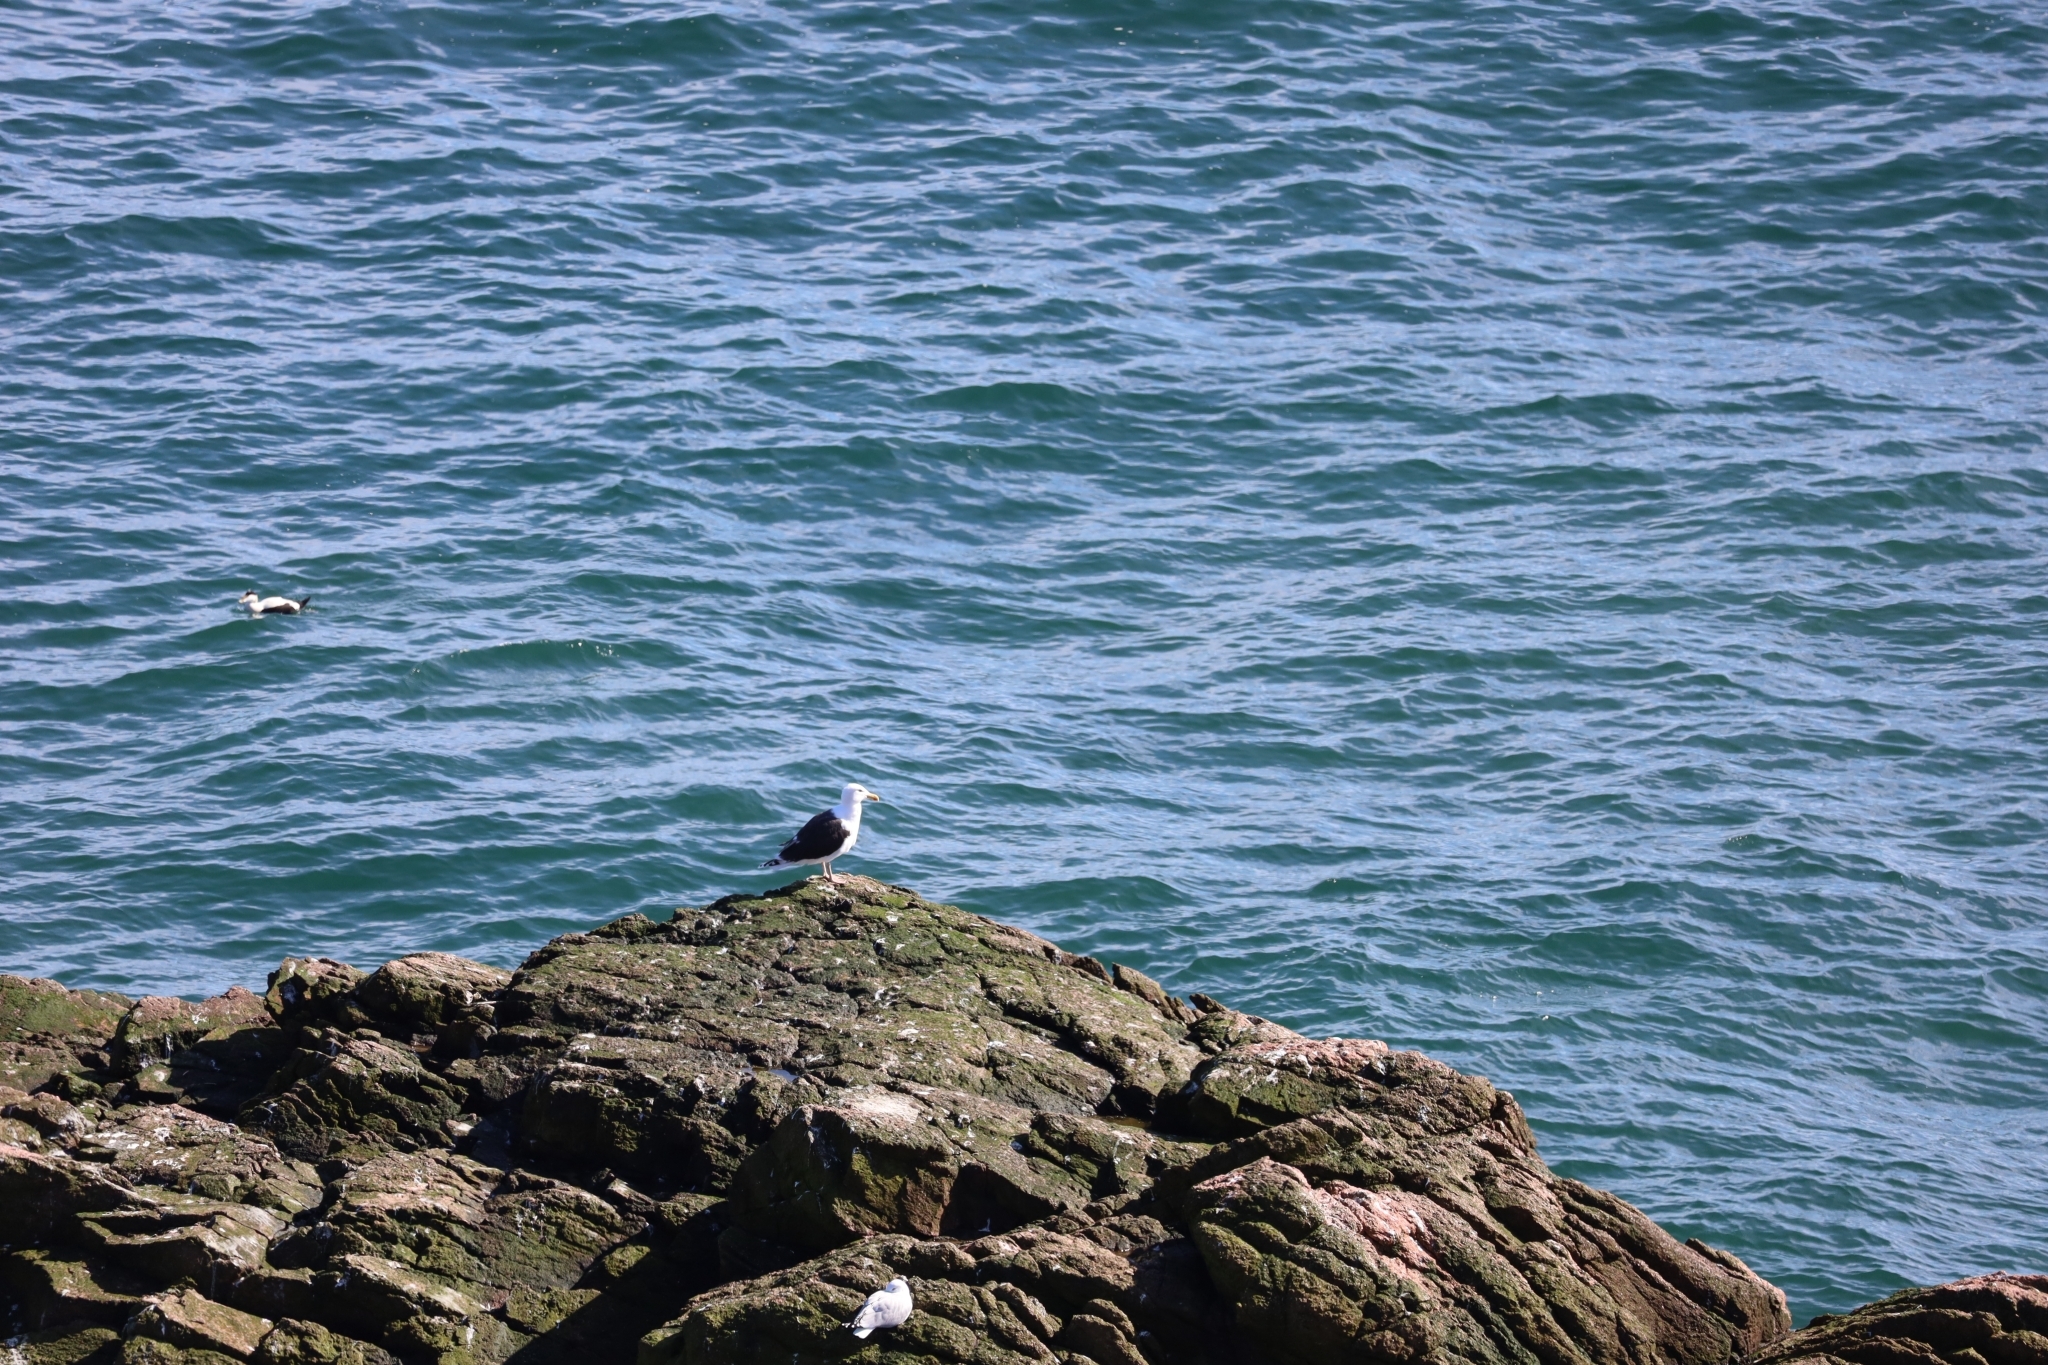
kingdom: Animalia
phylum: Chordata
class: Aves
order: Charadriiformes
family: Laridae
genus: Larus
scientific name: Larus marinus
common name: Great black-backed gull
